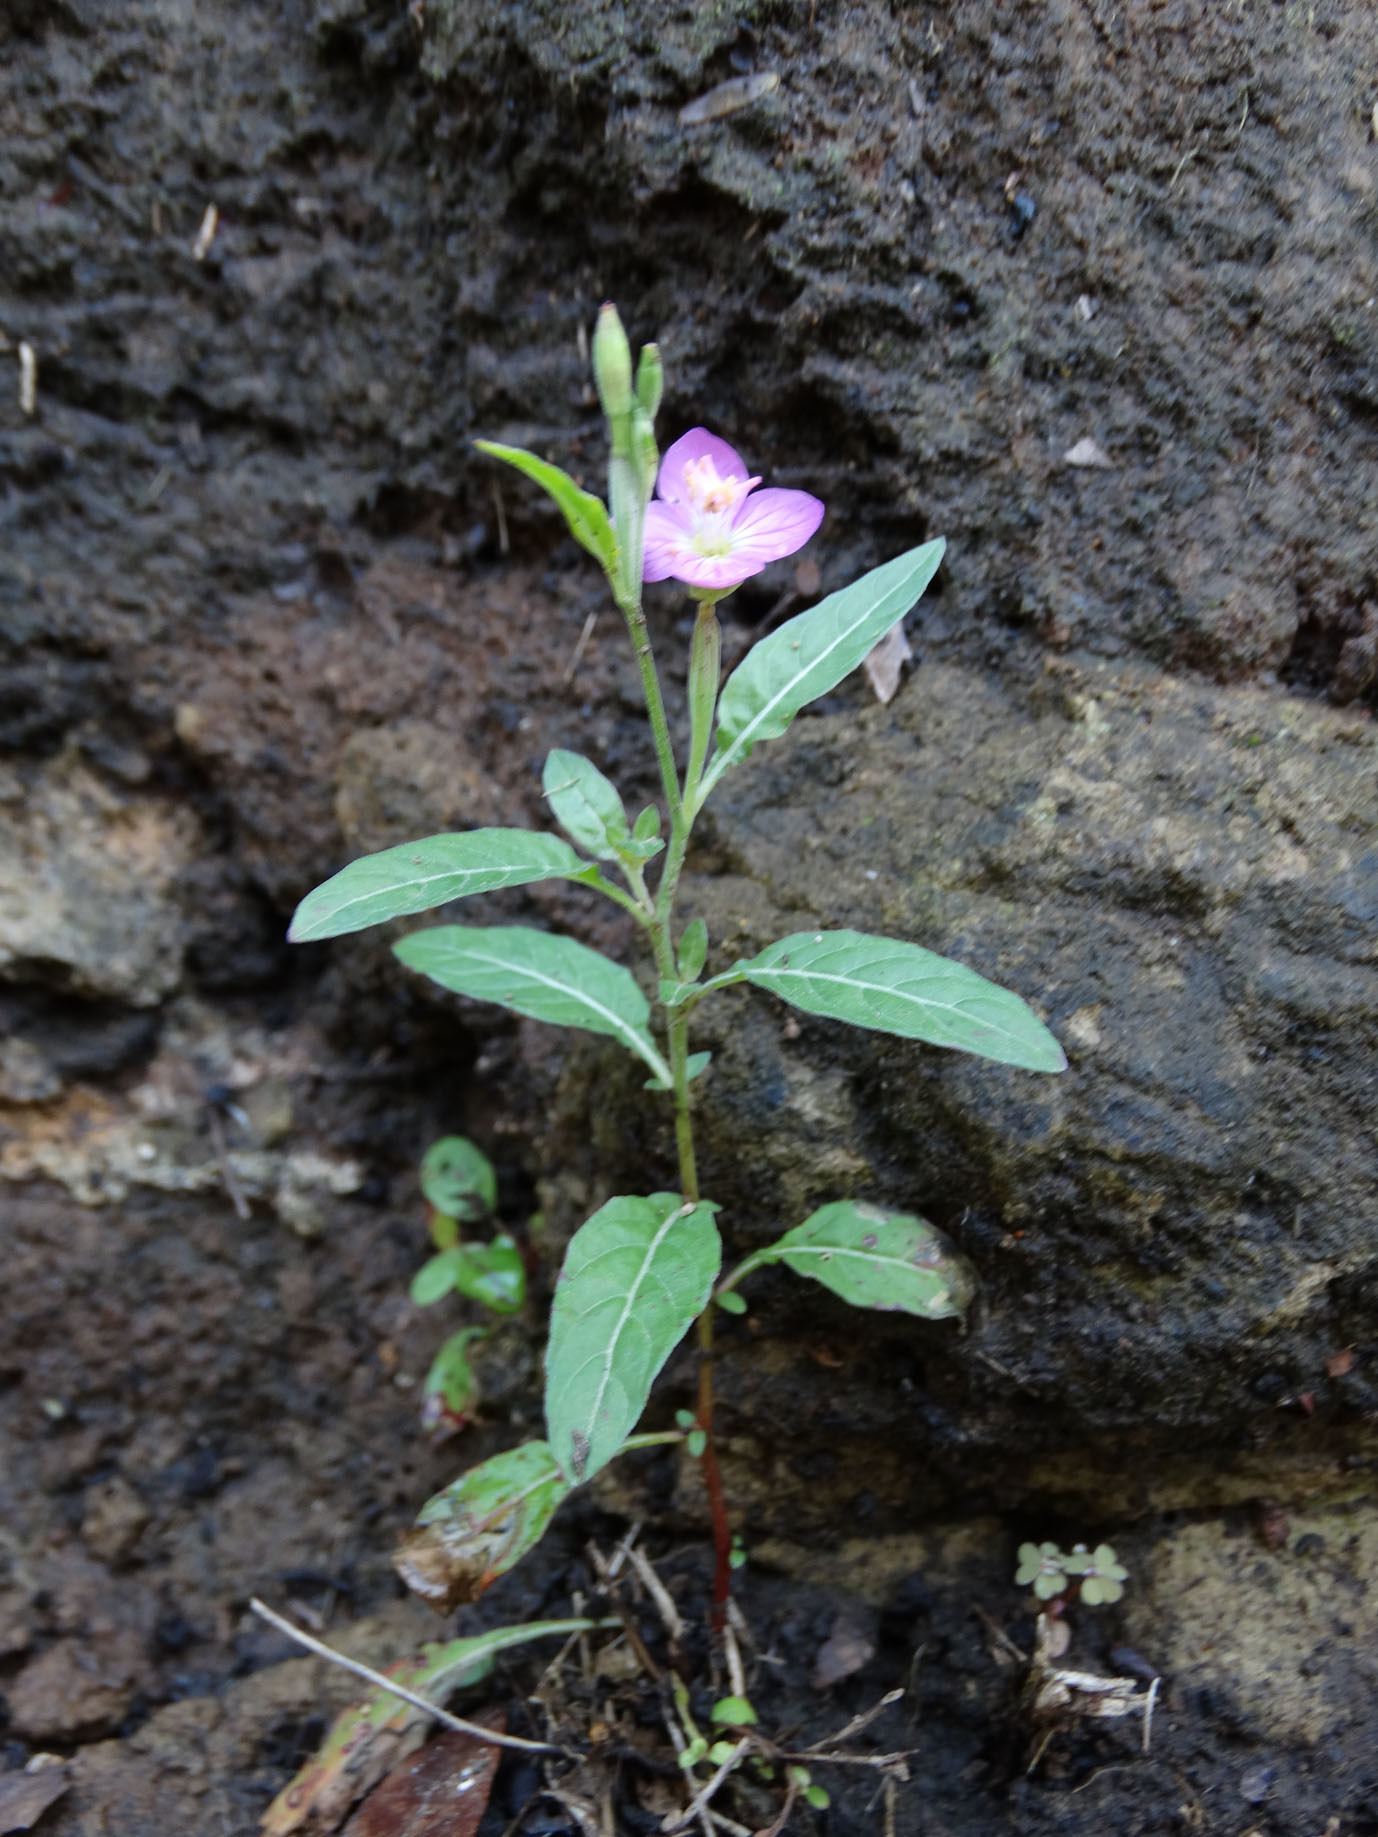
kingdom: Plantae
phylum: Tracheophyta
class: Magnoliopsida
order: Myrtales
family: Onagraceae
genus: Oenothera
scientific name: Oenothera rosea
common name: Rosy evening-primrose
